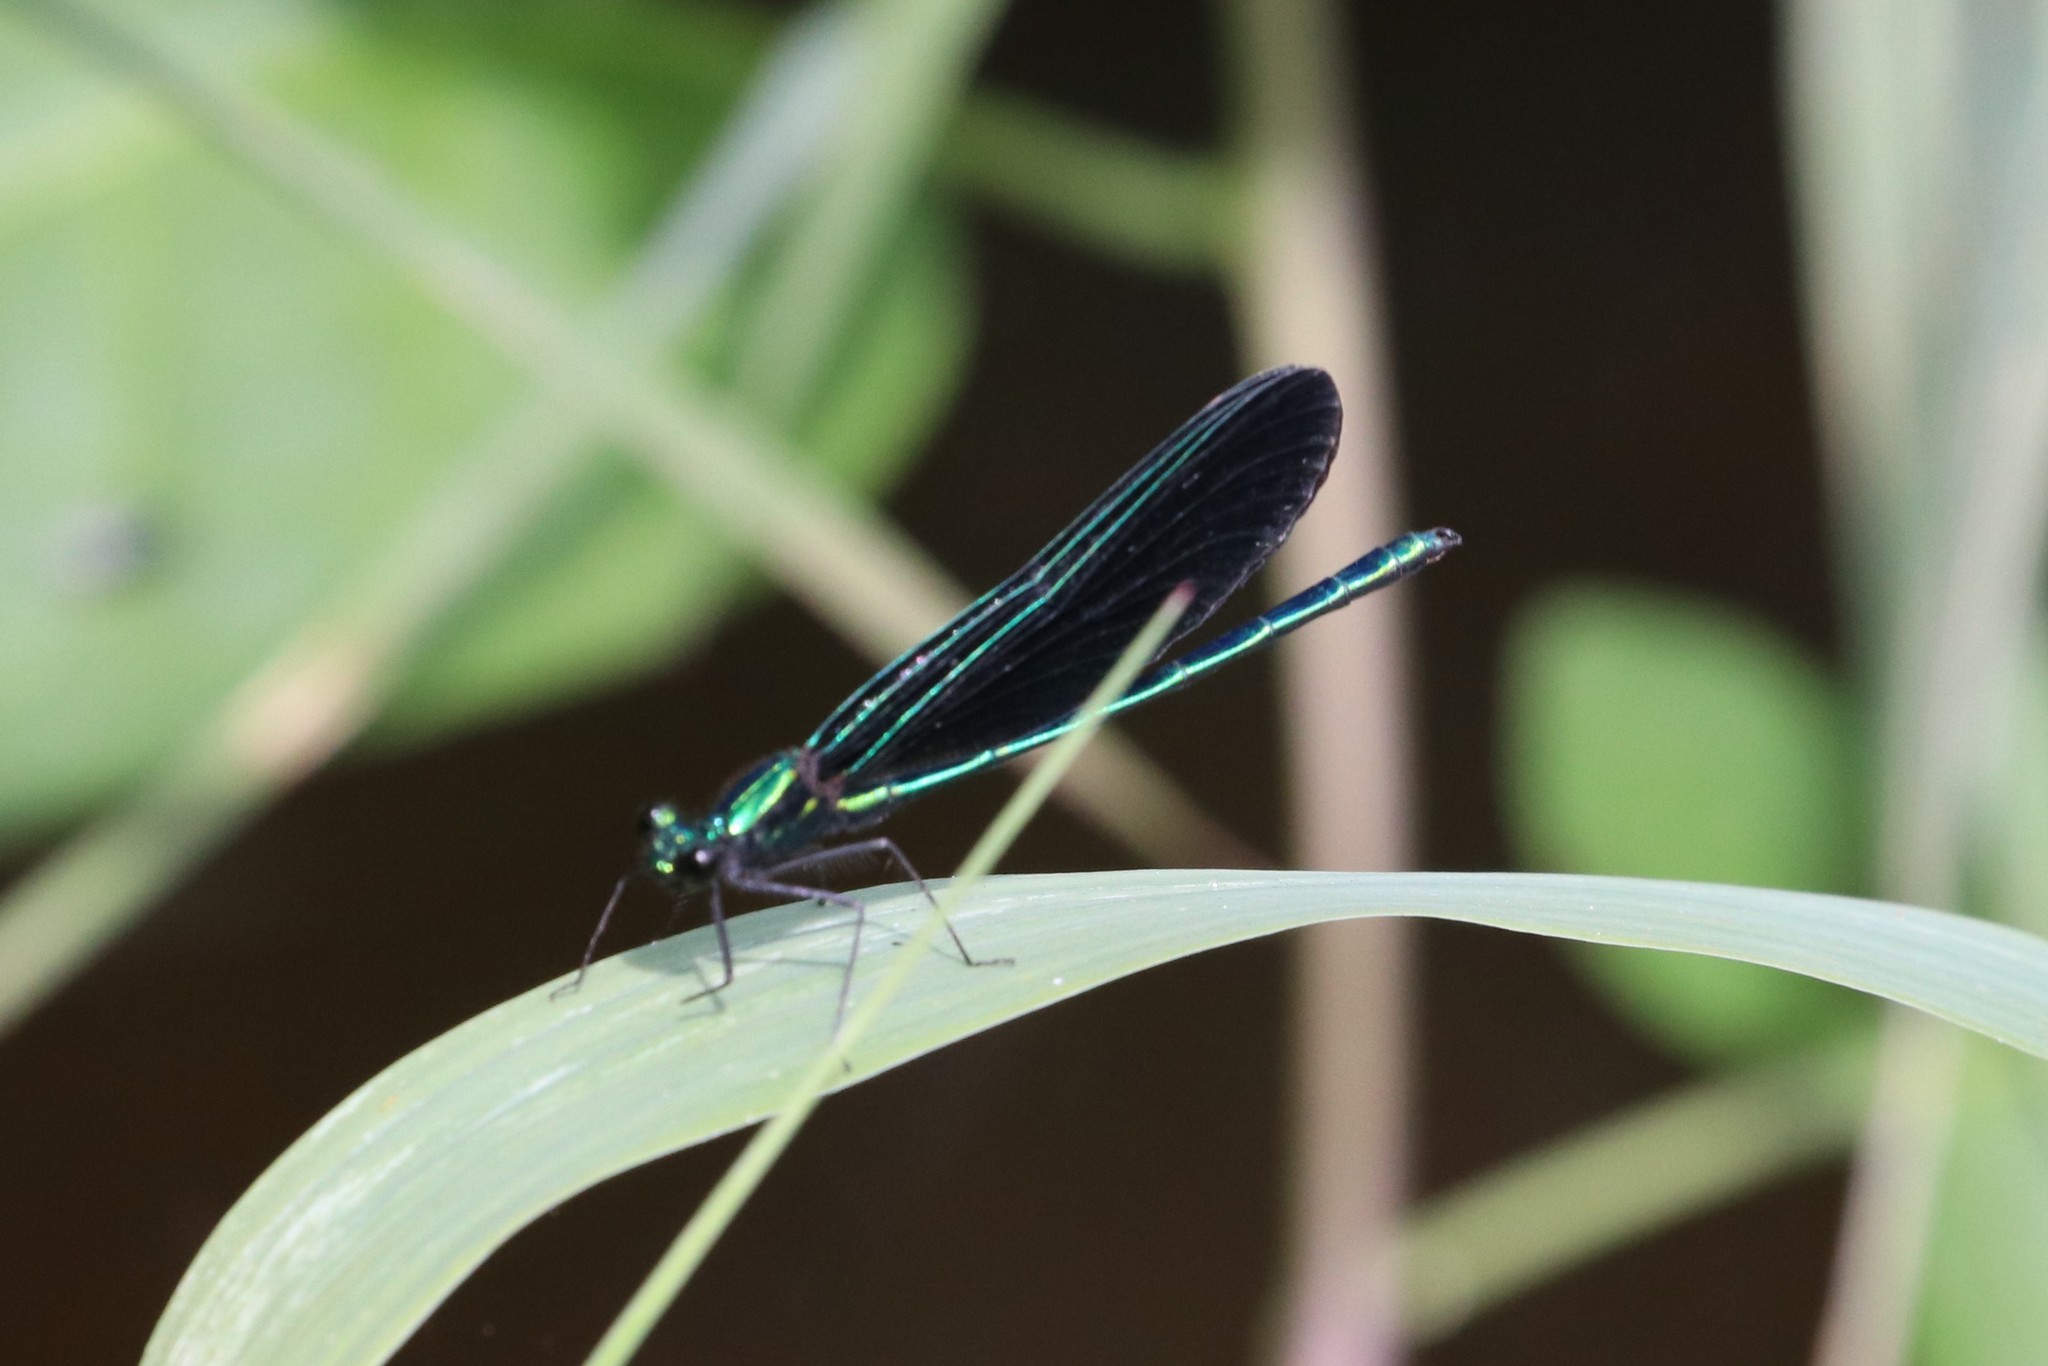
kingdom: Animalia
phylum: Arthropoda
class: Insecta
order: Odonata
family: Calopterygidae
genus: Calopteryx
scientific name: Calopteryx maculata
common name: Ebony jewelwing
